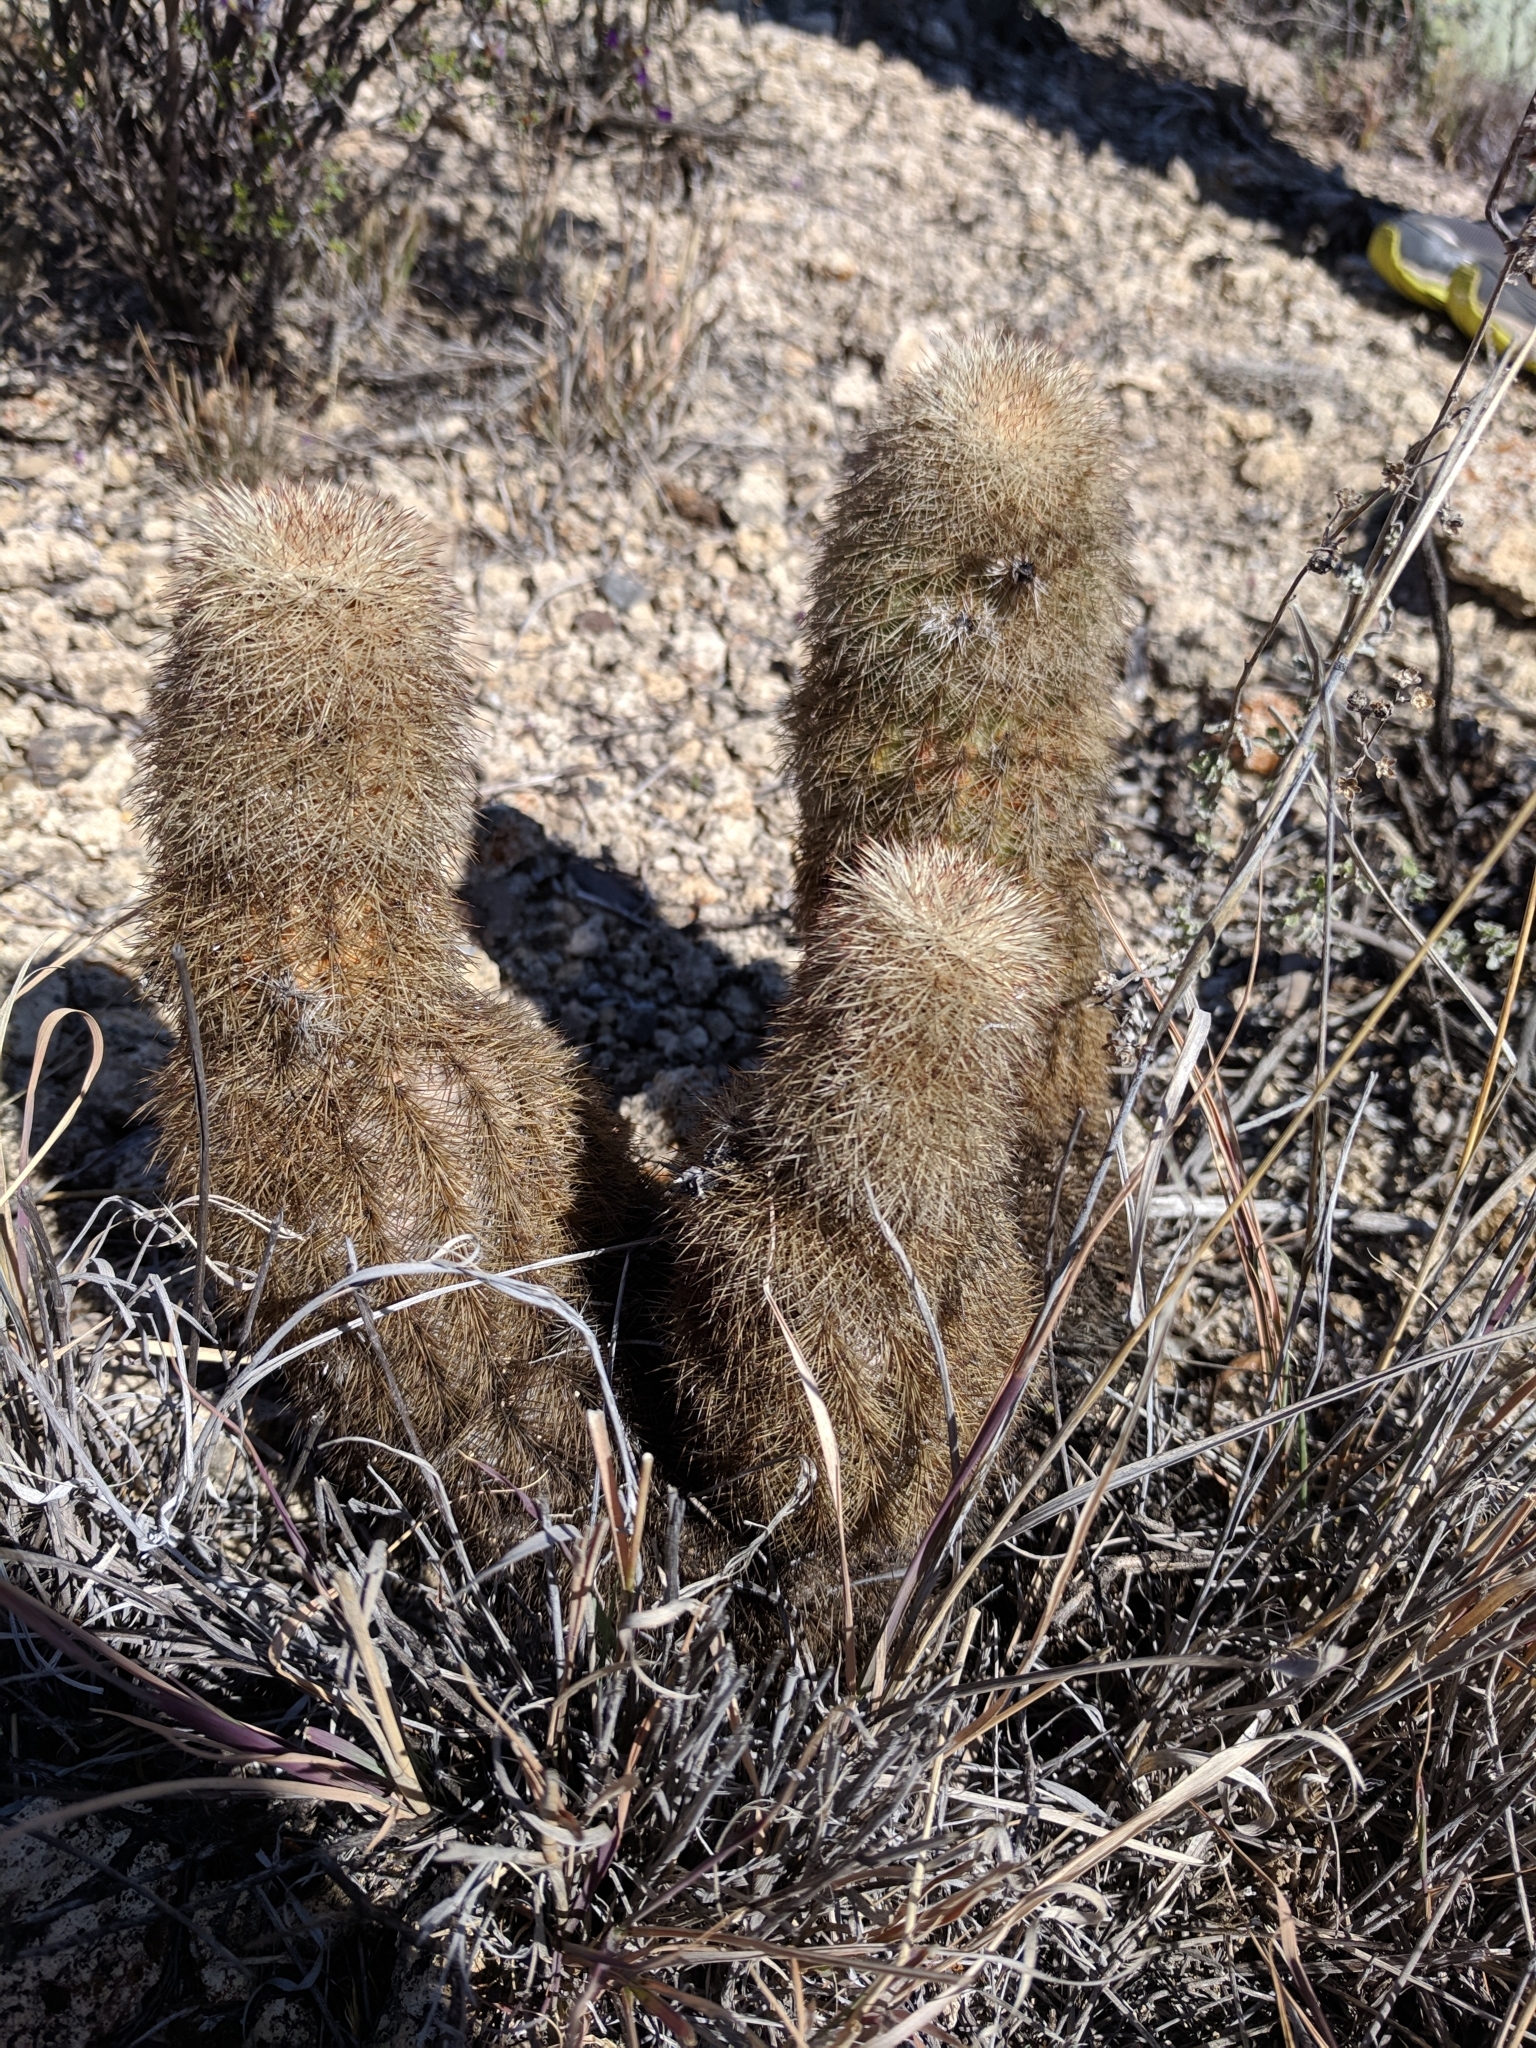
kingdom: Plantae
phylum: Tracheophyta
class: Magnoliopsida
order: Caryophyllales
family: Cactaceae
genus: Echinocereus
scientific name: Echinocereus dasyacanthus
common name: Spiny hedgehog cactus
